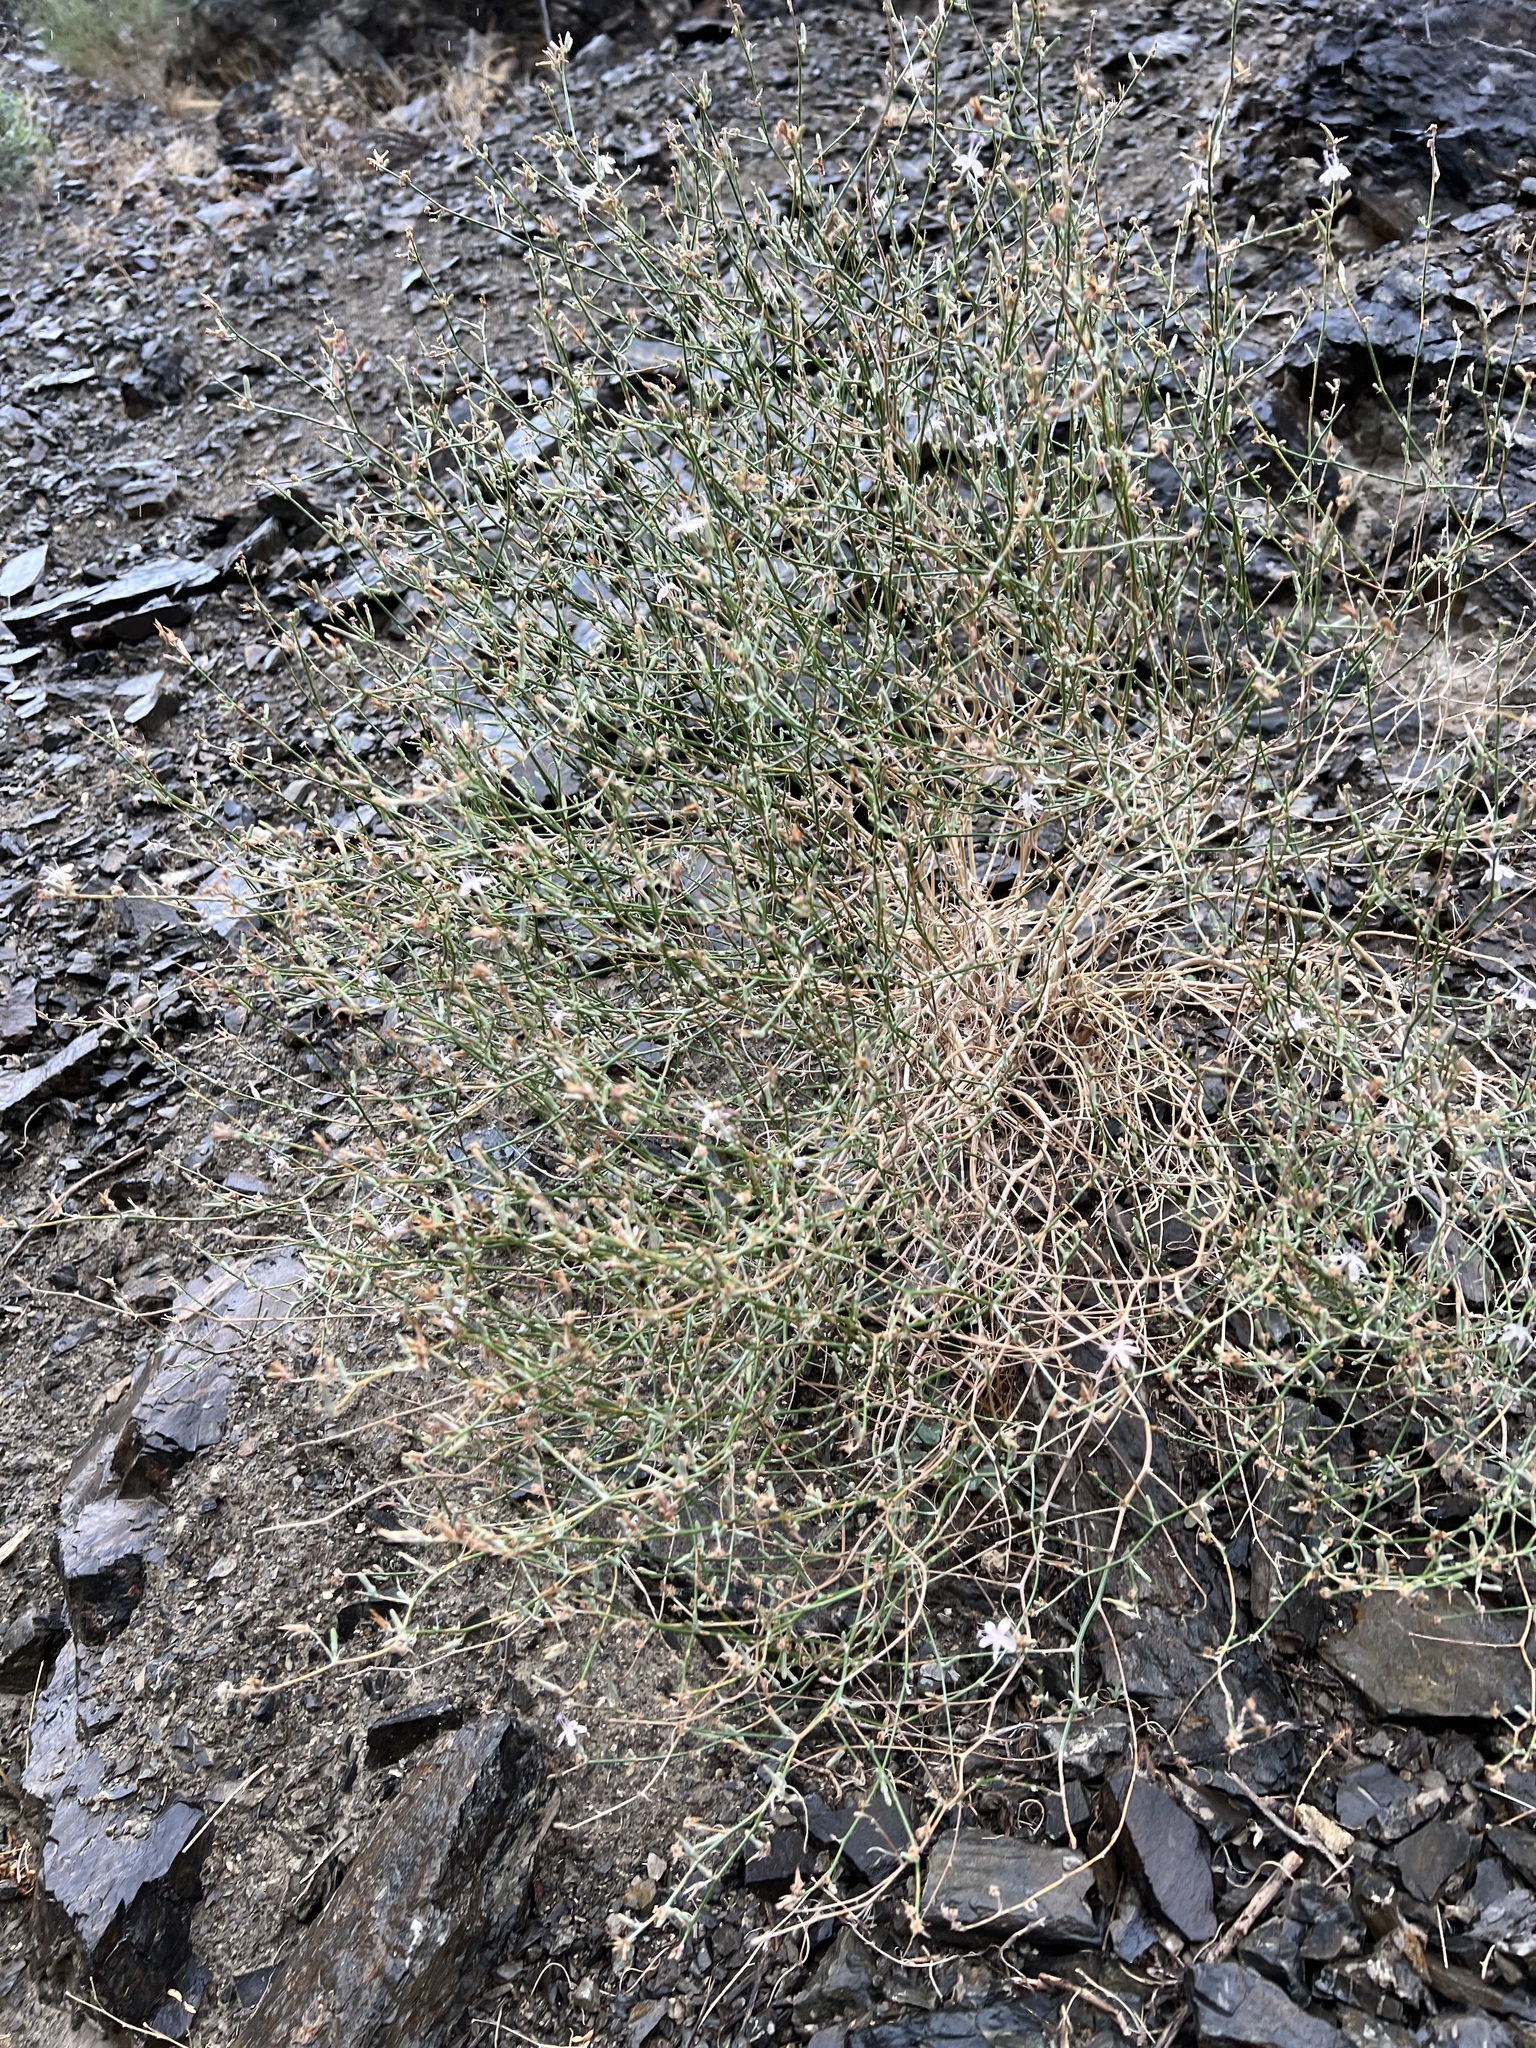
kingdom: Plantae
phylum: Tracheophyta
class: Magnoliopsida
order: Asterales
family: Asteraceae
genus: Stephanomeria
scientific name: Stephanomeria pauciflora
